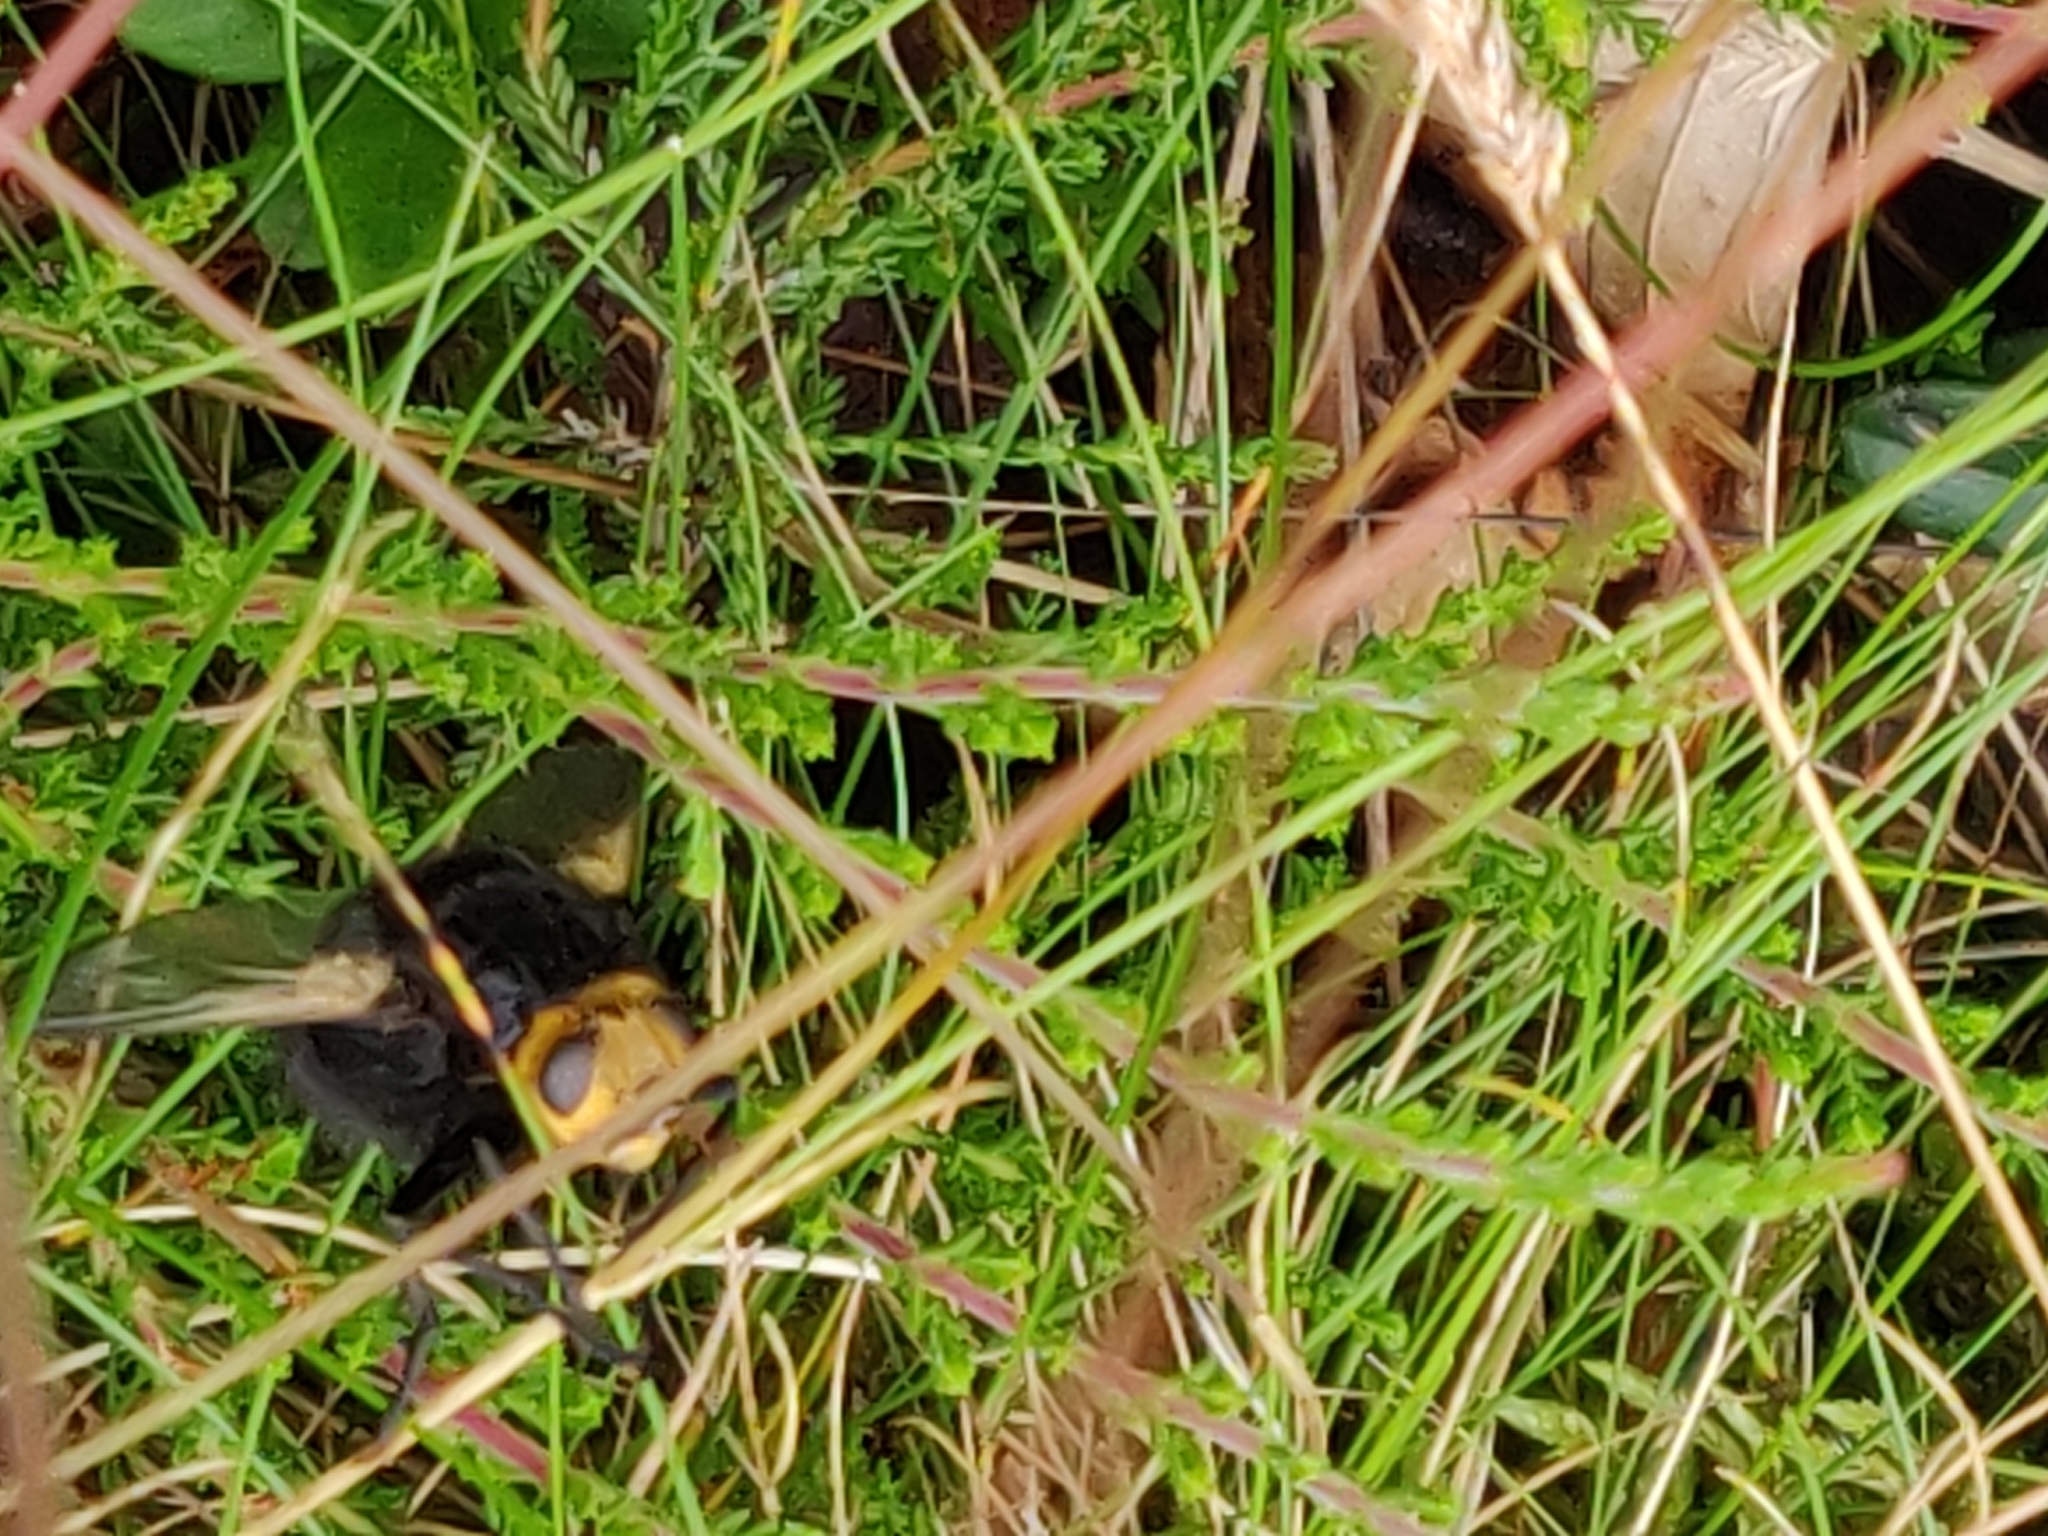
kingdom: Animalia
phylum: Arthropoda
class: Insecta
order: Diptera
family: Tachinidae
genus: Tachina
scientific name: Tachina grossa
